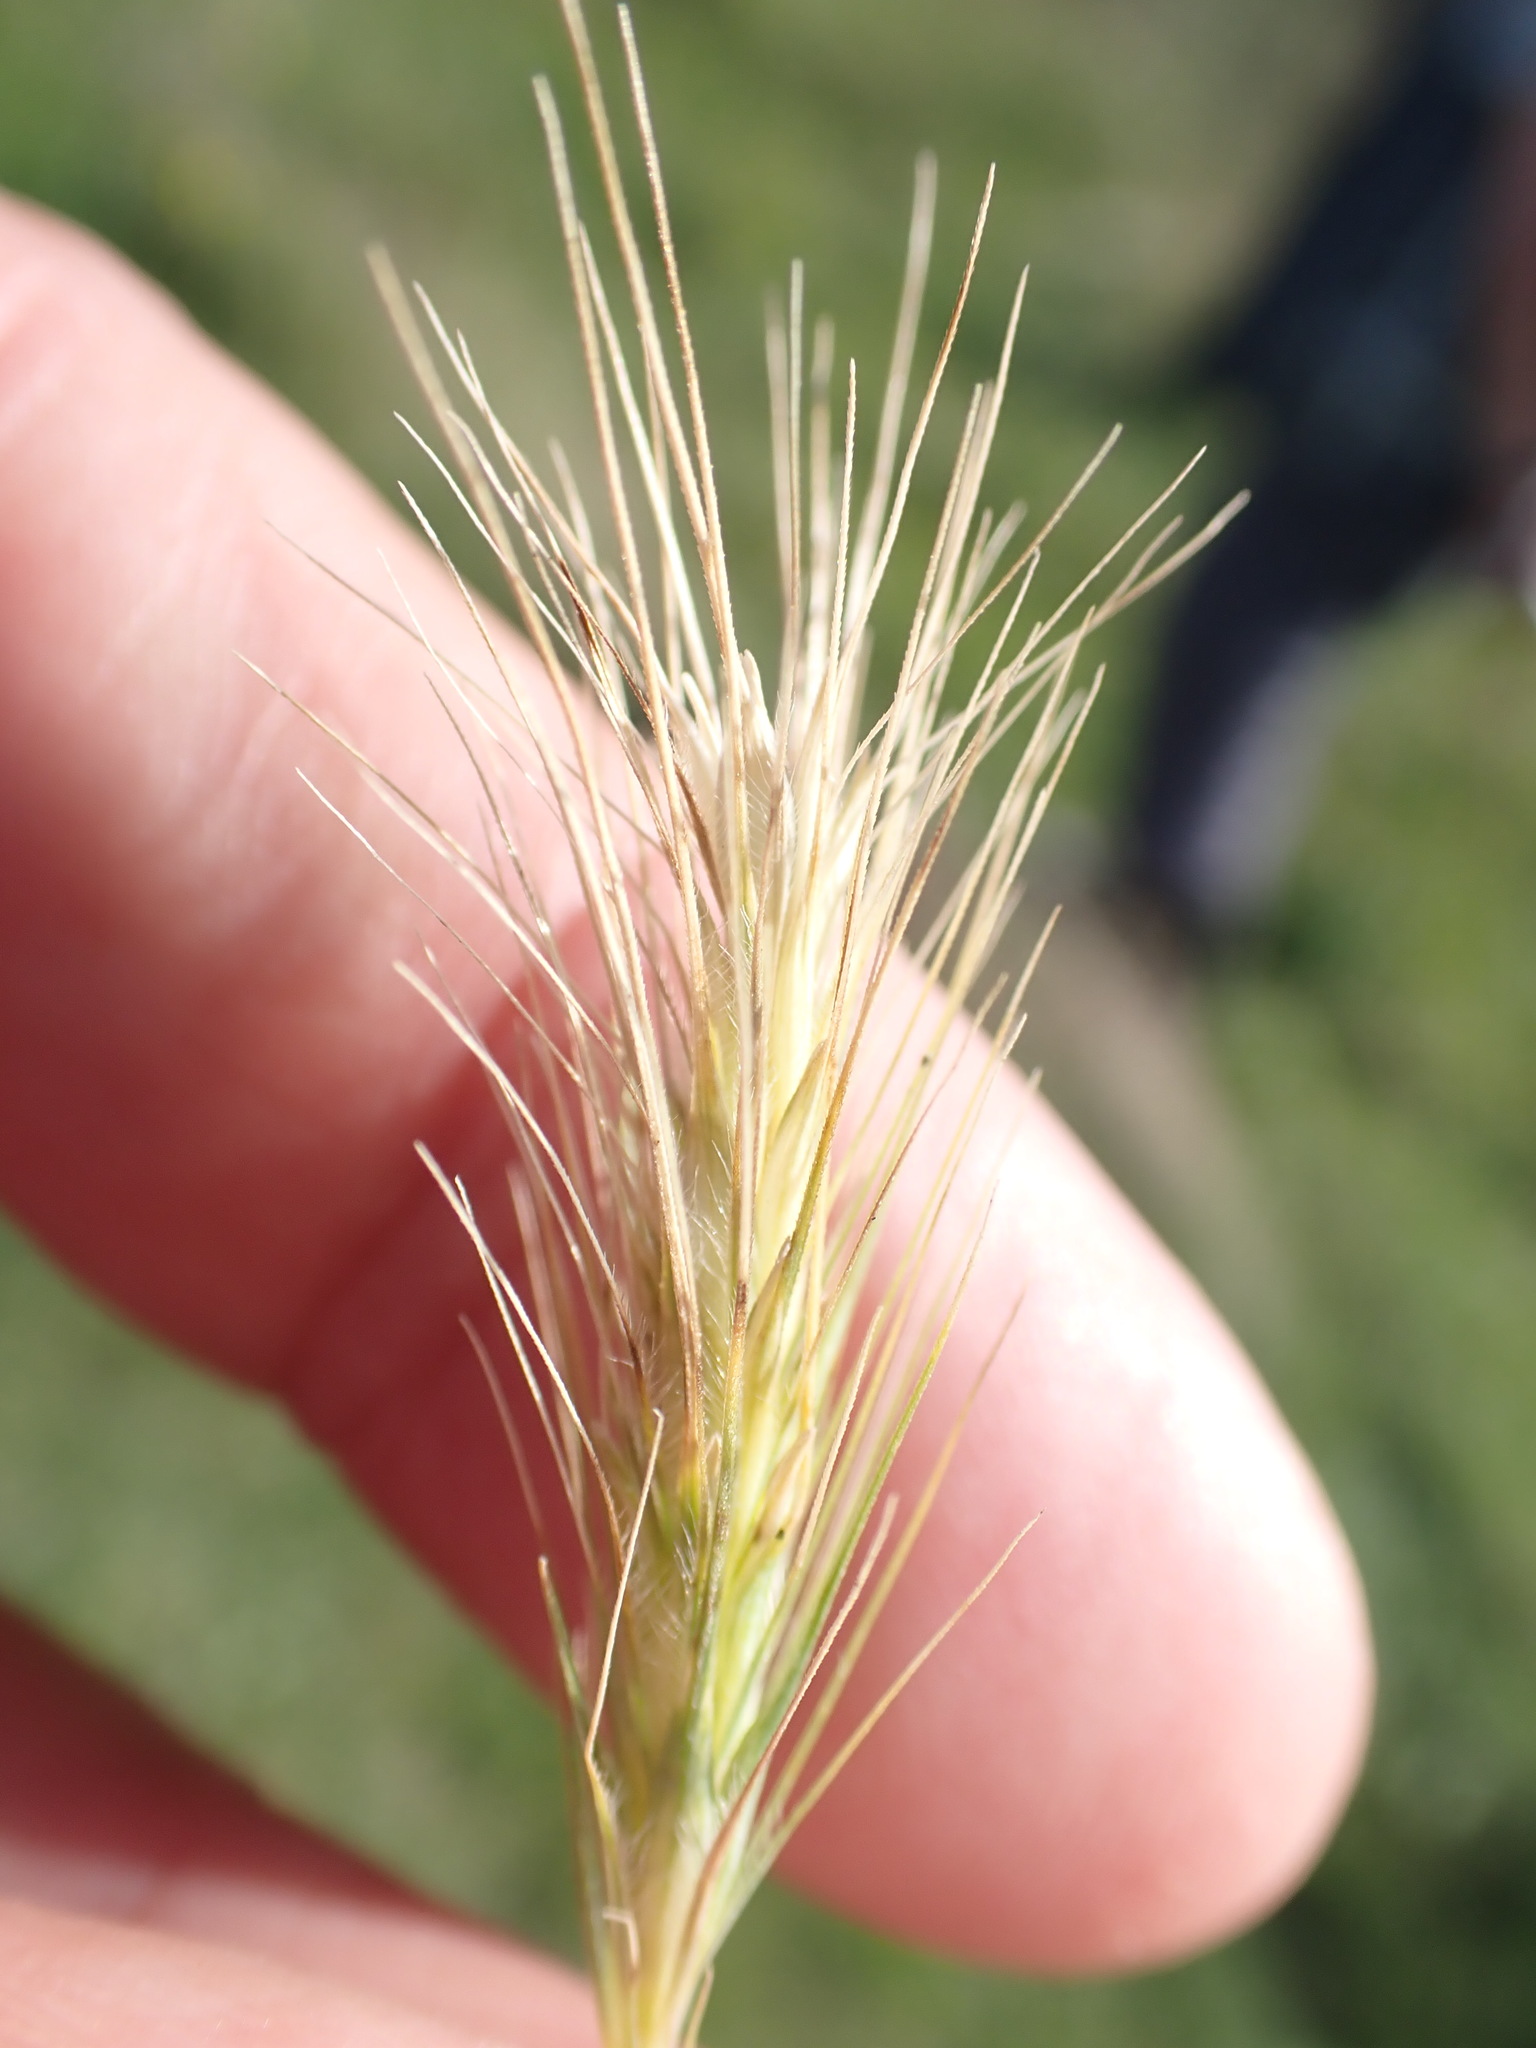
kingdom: Plantae
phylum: Tracheophyta
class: Liliopsida
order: Poales
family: Poaceae
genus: Hordeum
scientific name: Hordeum murinum
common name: Wall barley
